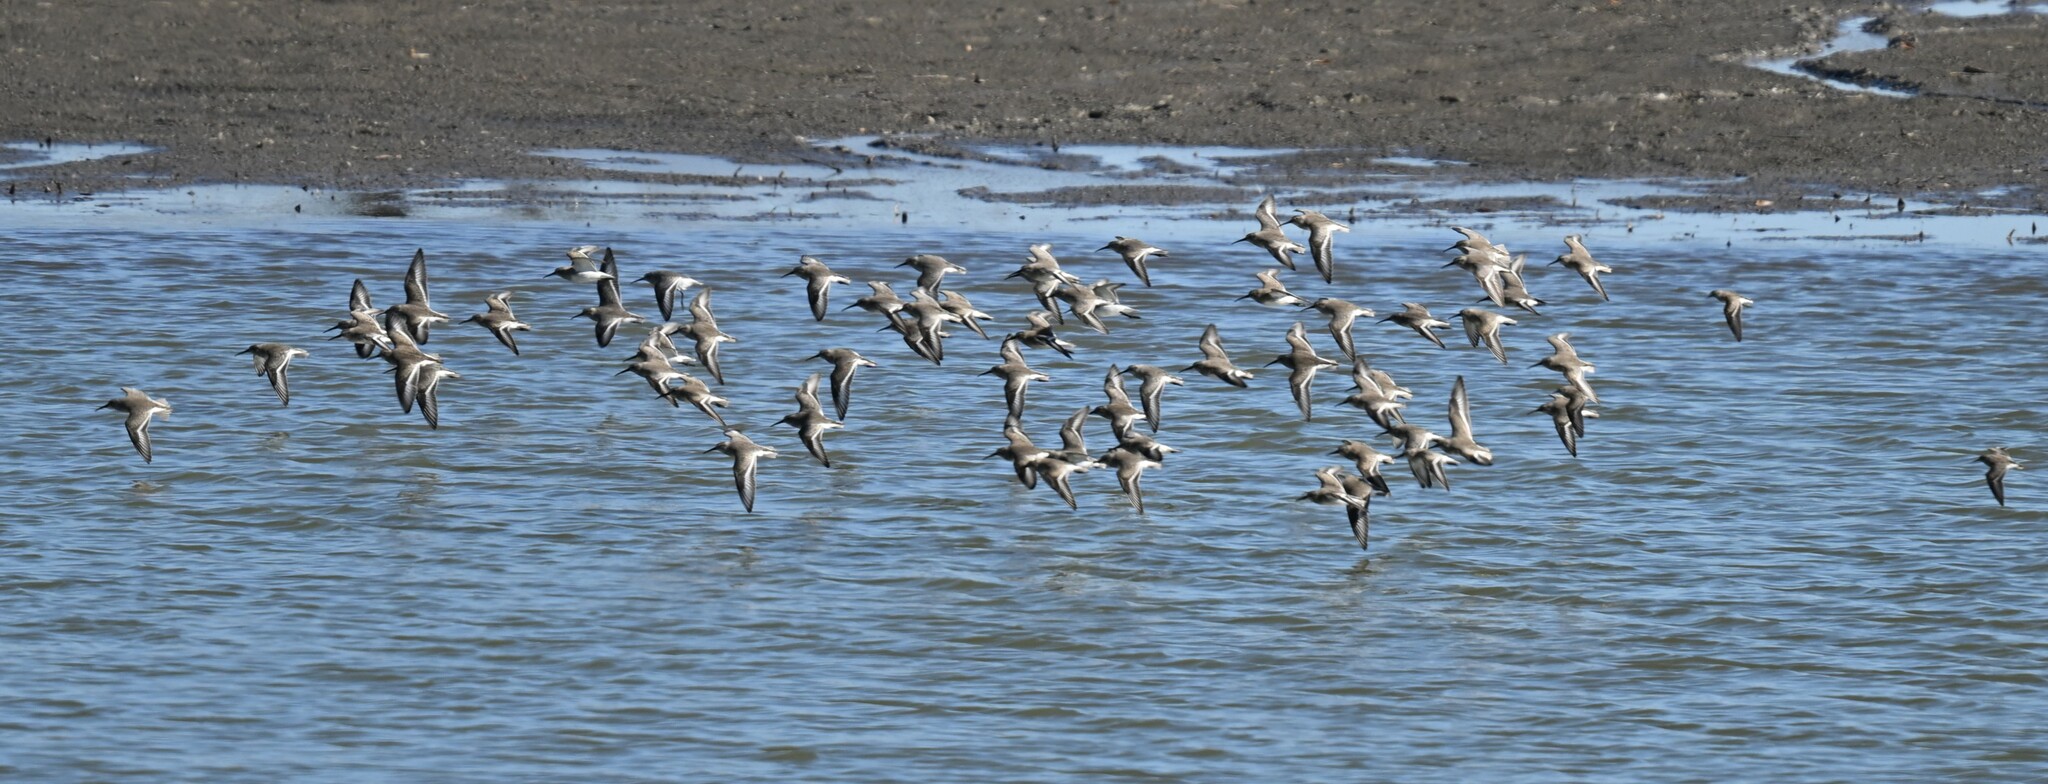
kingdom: Animalia
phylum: Chordata
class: Aves
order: Charadriiformes
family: Scolopacidae
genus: Calidris
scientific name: Calidris alpina
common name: Dunlin
